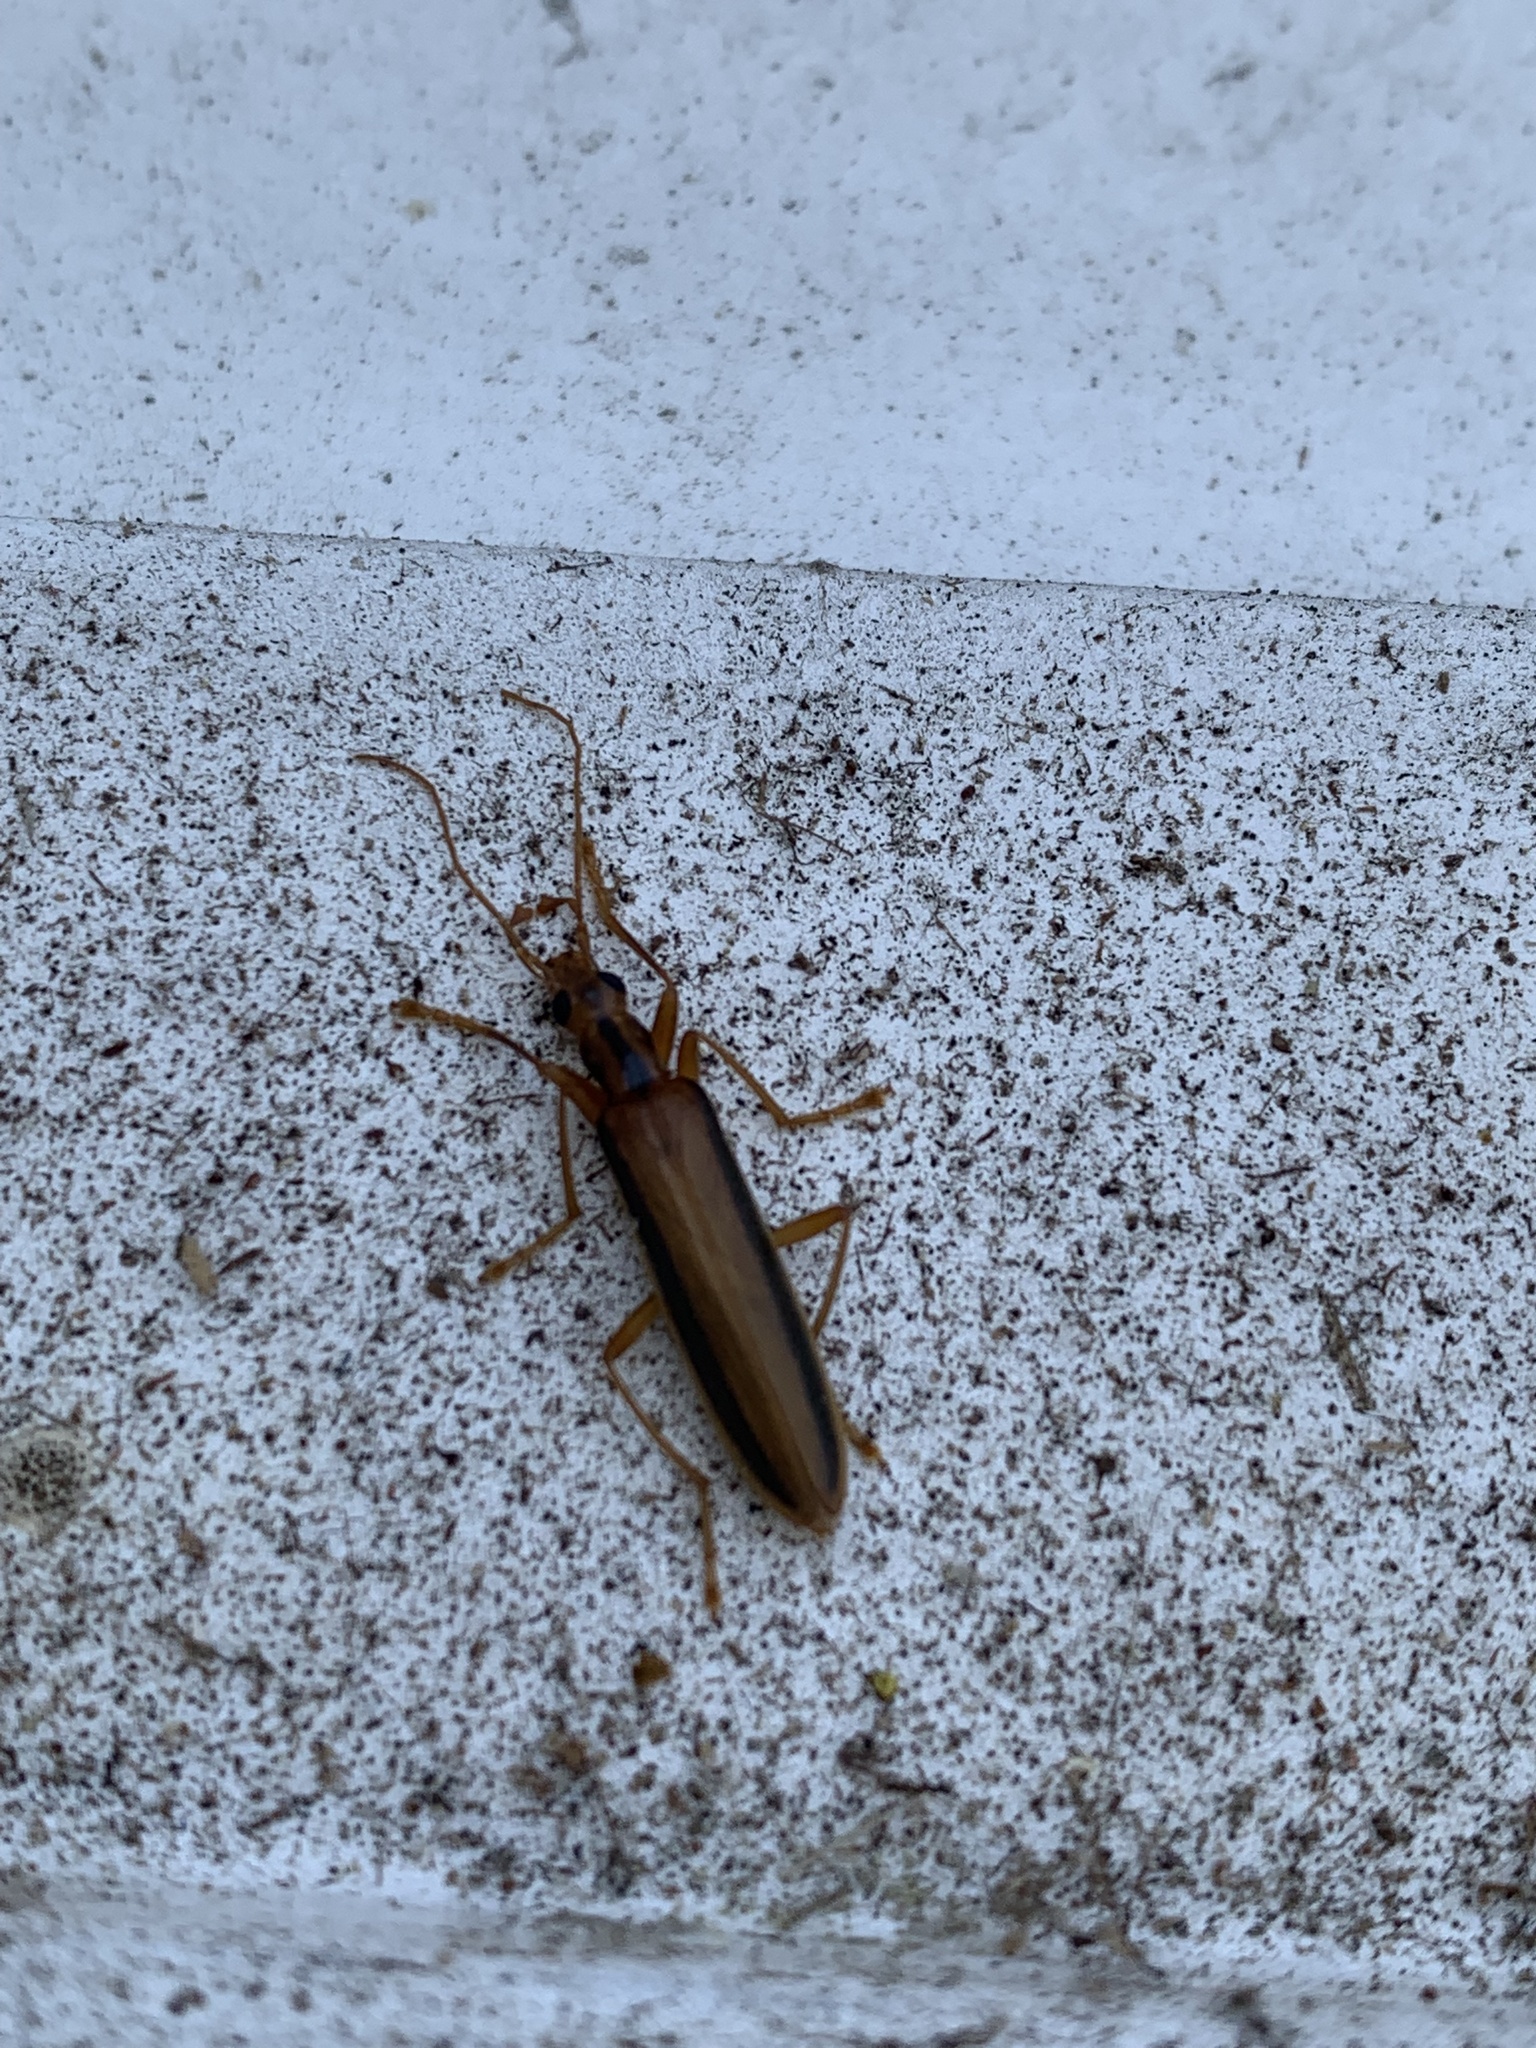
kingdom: Animalia
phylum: Arthropoda
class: Insecta
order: Coleoptera
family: Oedemeridae
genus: Thelyphassa
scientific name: Thelyphassa
